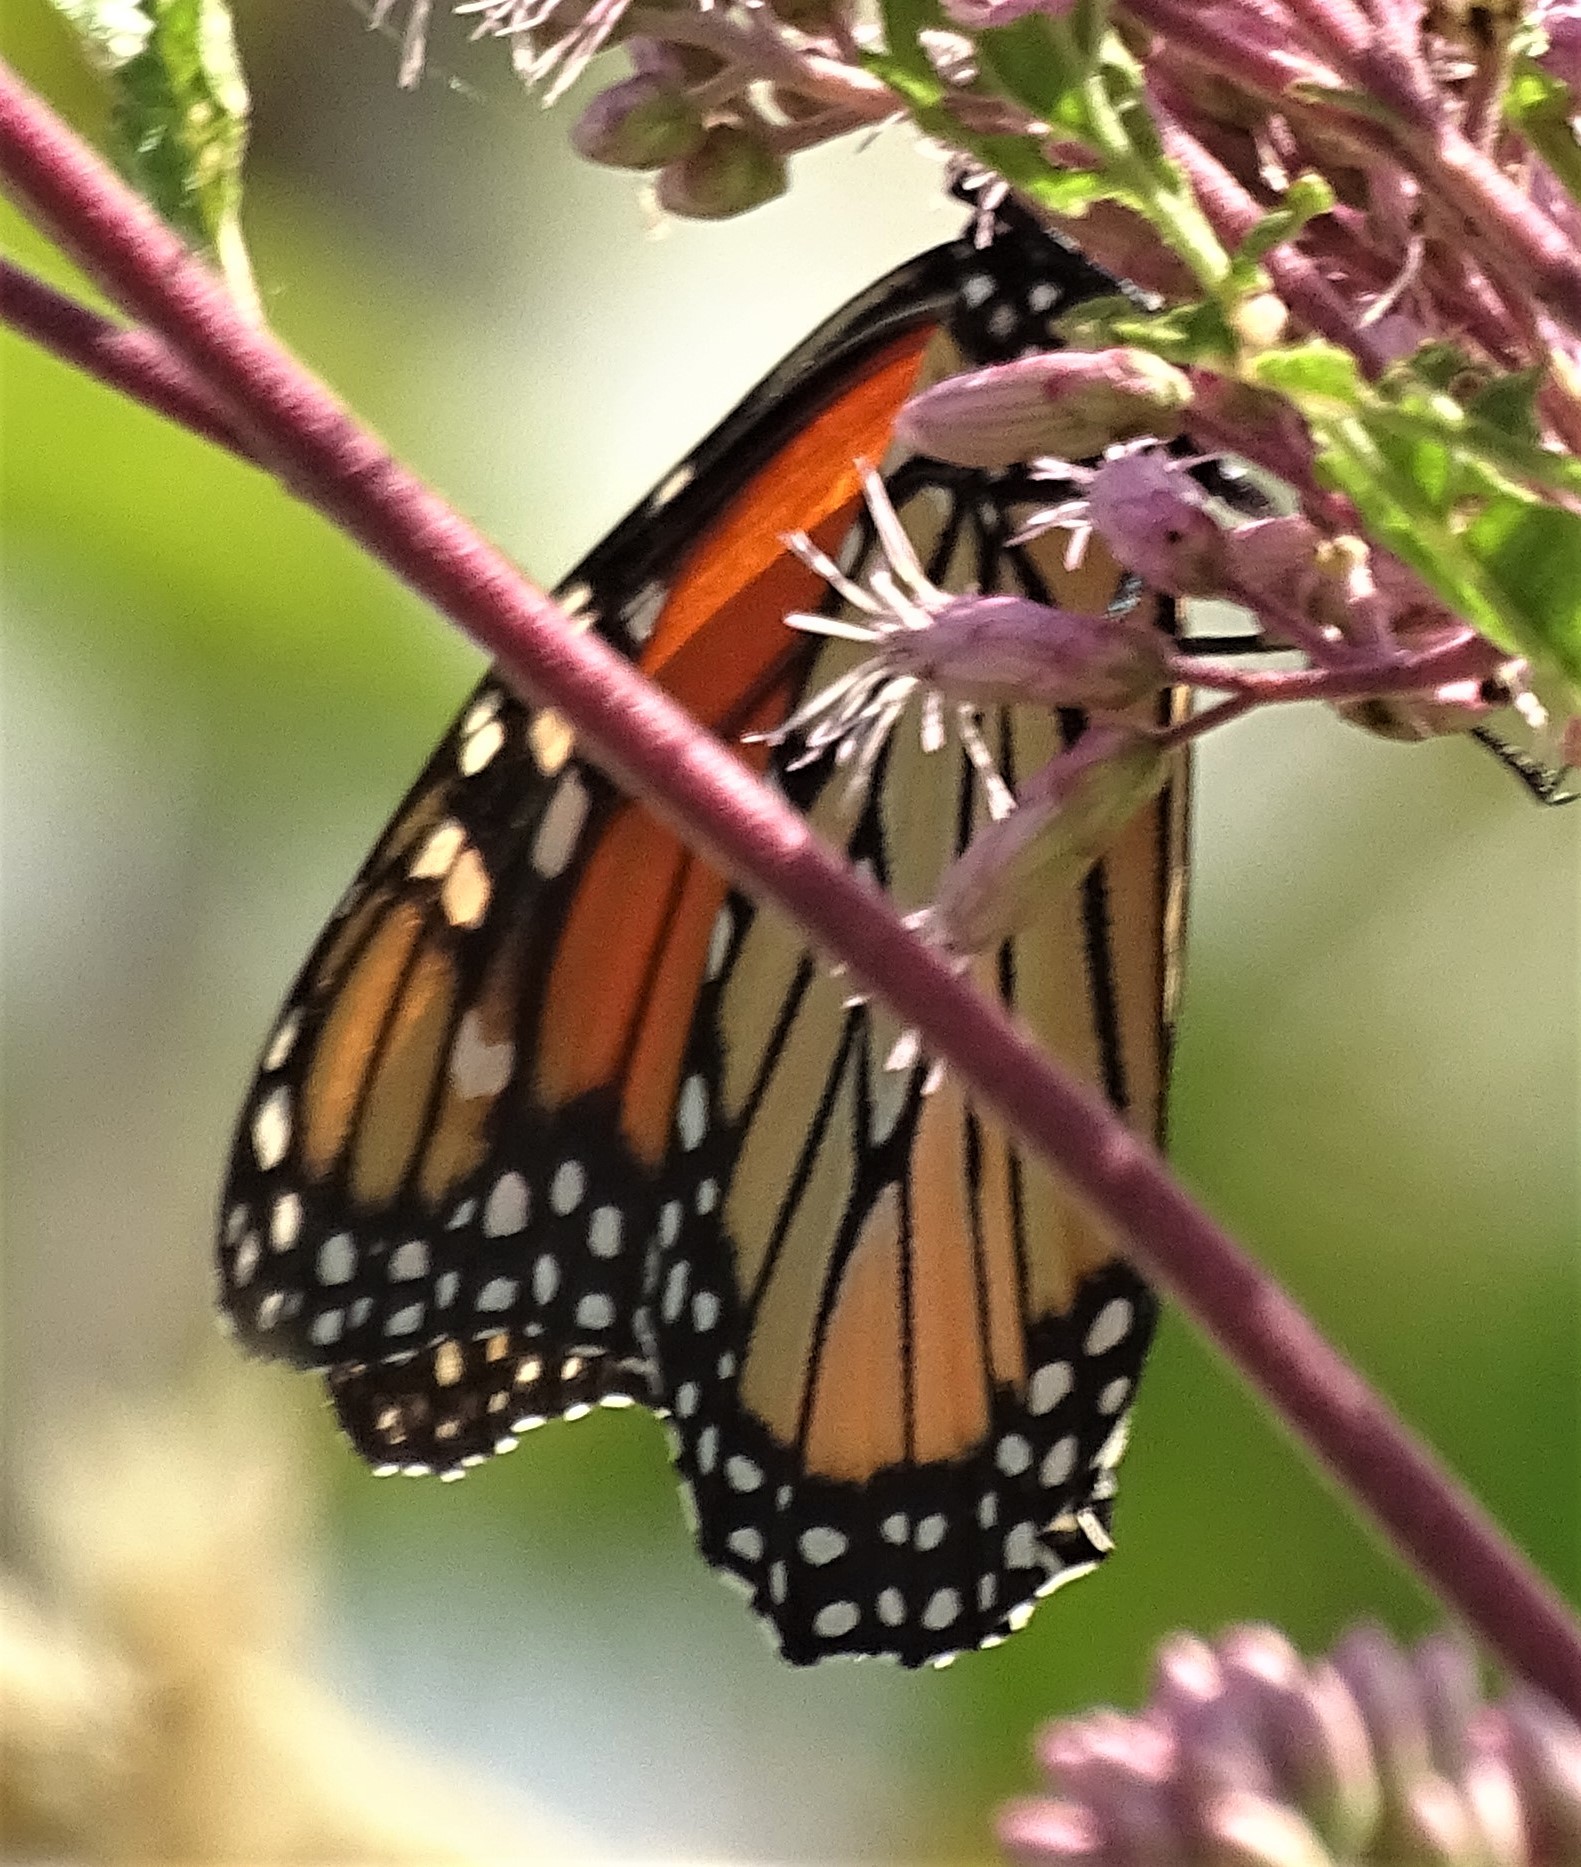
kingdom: Animalia
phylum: Arthropoda
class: Insecta
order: Lepidoptera
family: Nymphalidae
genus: Danaus
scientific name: Danaus plexippus
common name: Monarch
